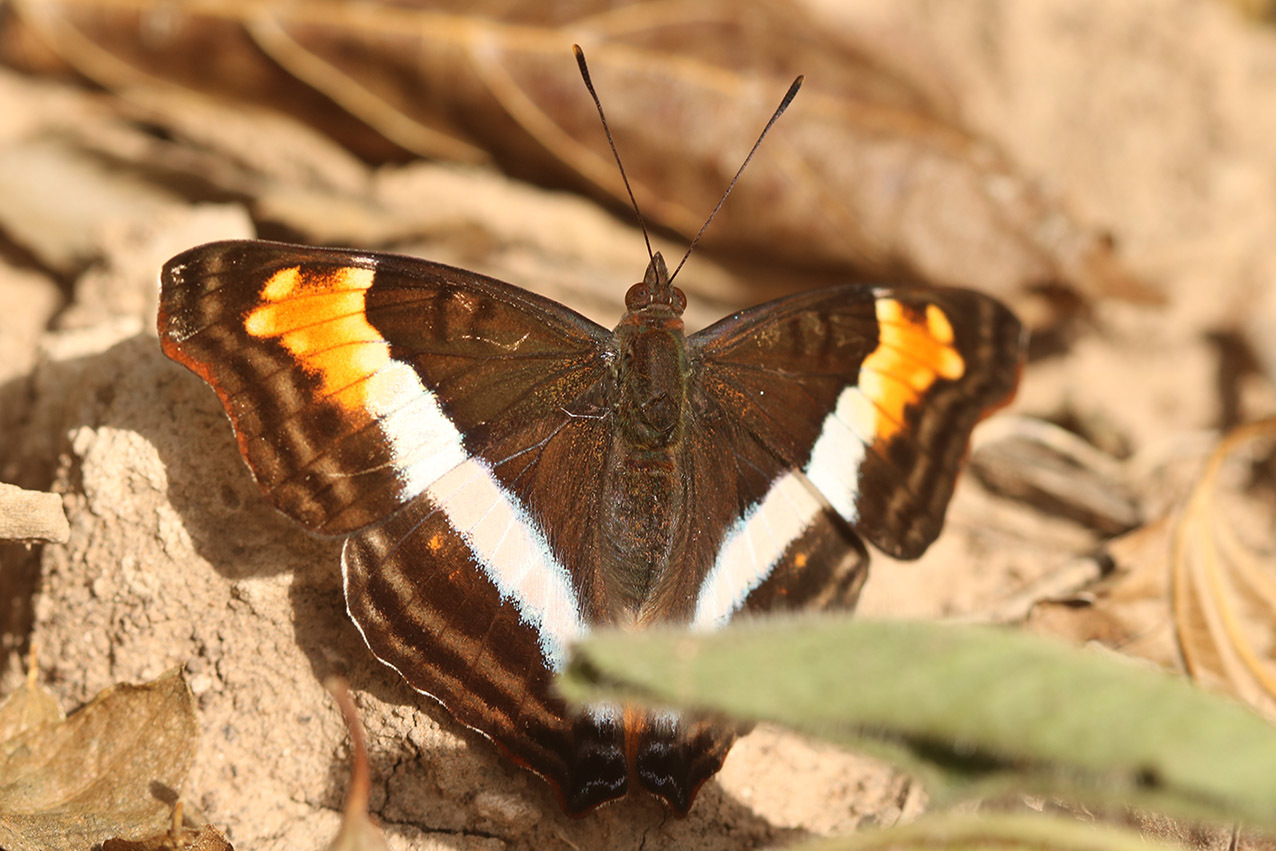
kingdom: Animalia
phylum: Arthropoda
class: Insecta
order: Lepidoptera
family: Nymphalidae
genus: Doxocopa
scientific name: Doxocopa laurentia
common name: Turquoise emperor
